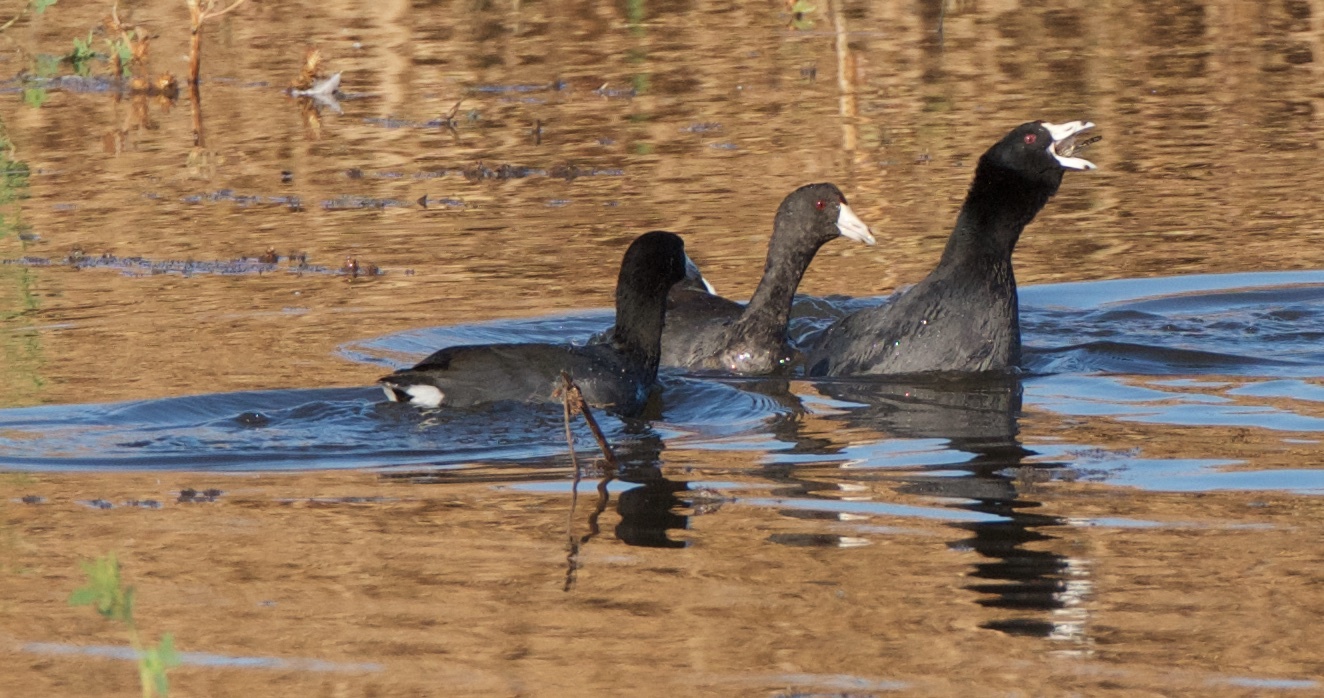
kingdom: Animalia
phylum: Chordata
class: Aves
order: Gruiformes
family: Rallidae
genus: Fulica
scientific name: Fulica americana
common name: American coot
